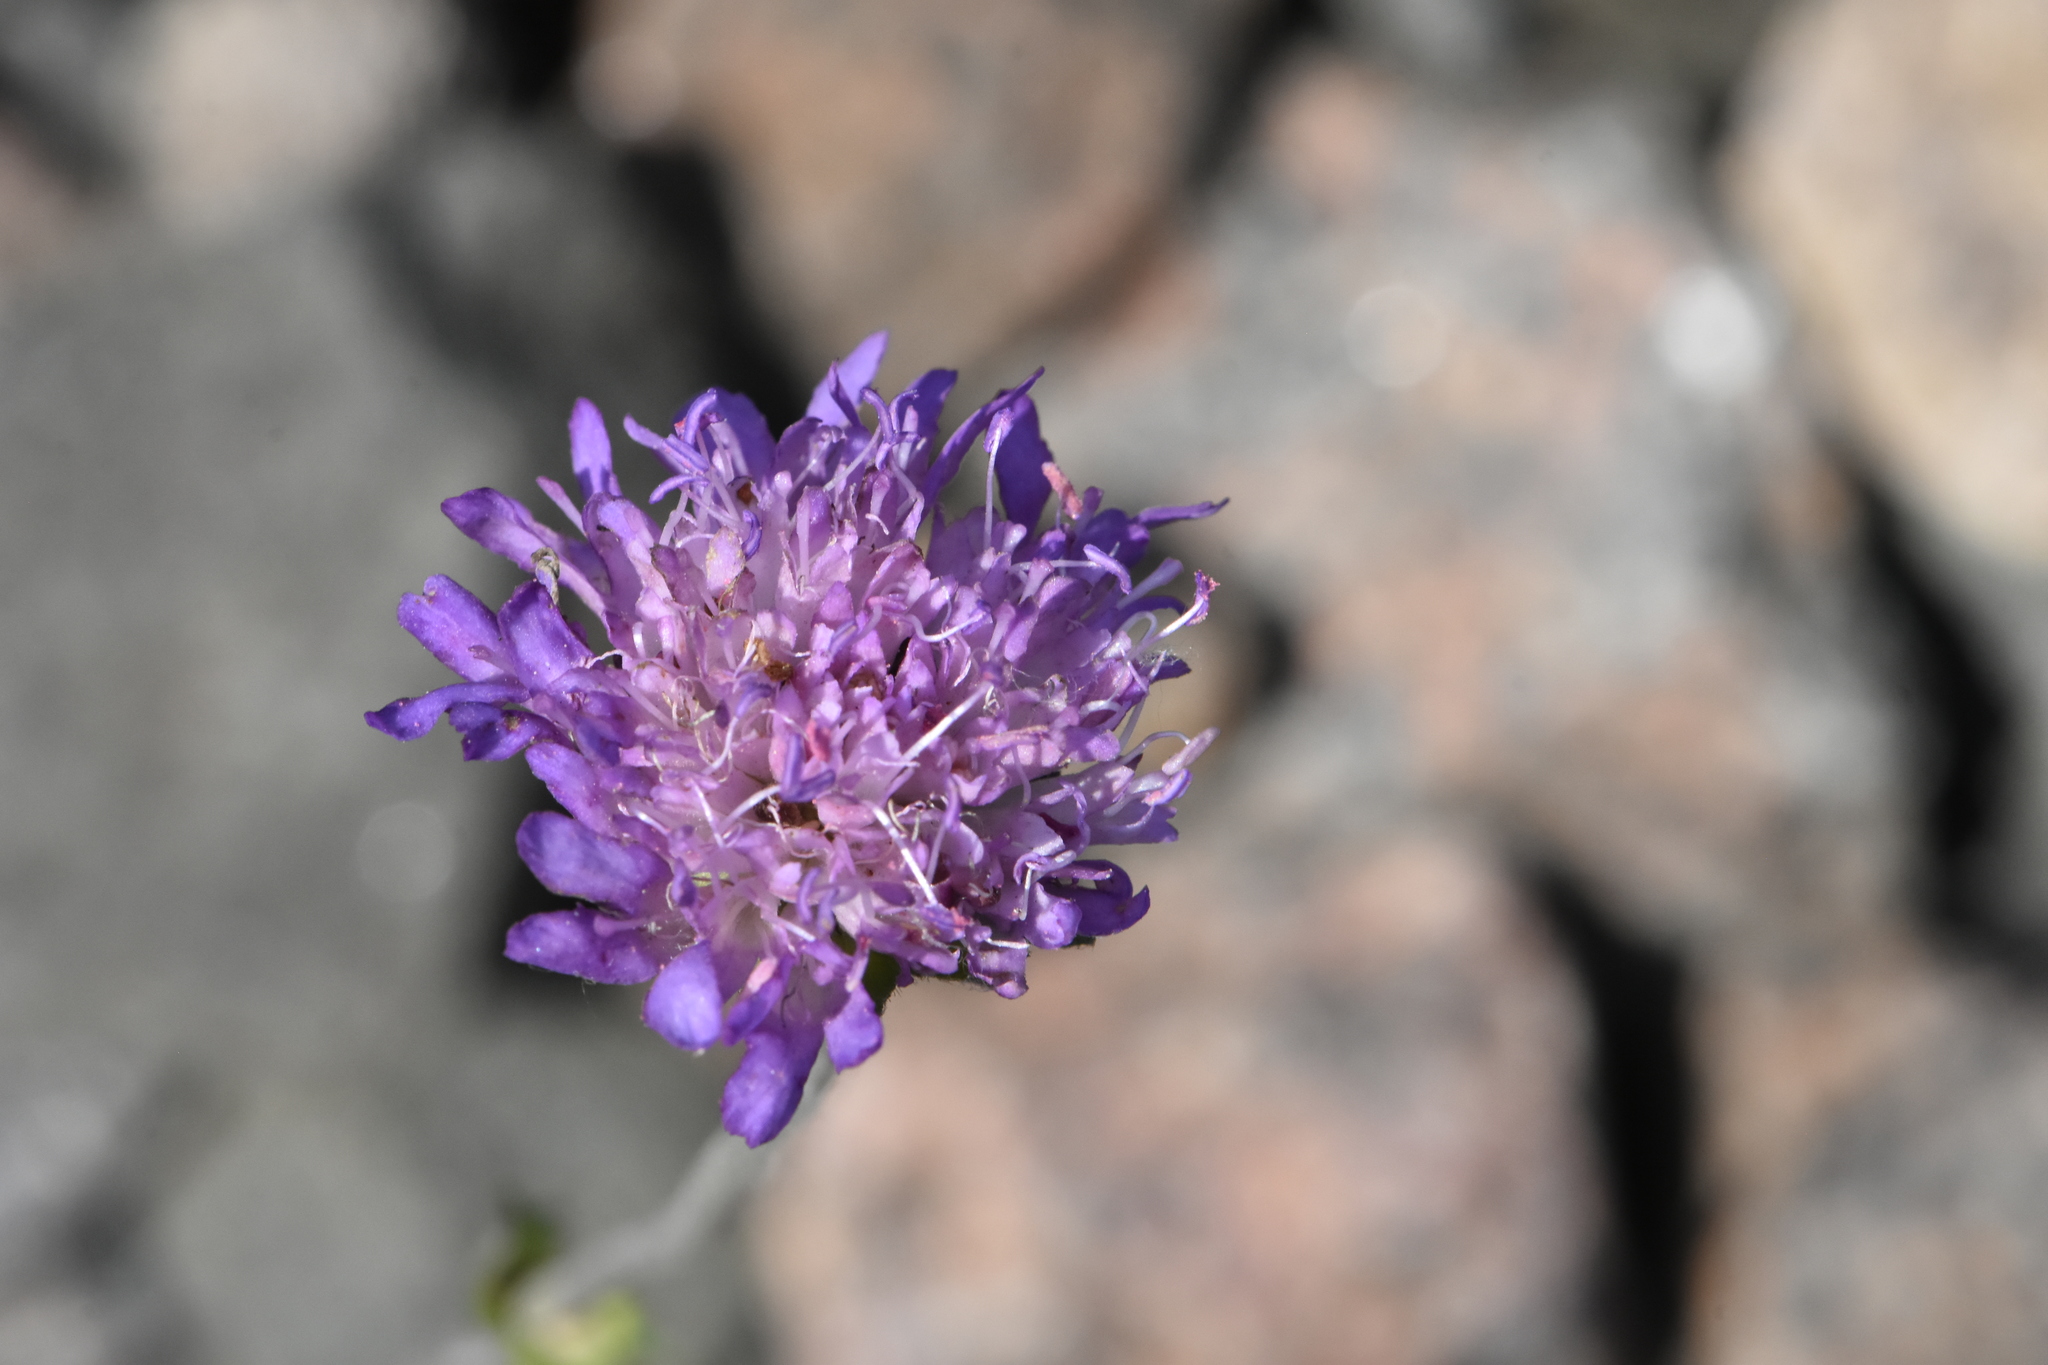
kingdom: Plantae
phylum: Tracheophyta
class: Magnoliopsida
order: Dipsacales
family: Caprifoliaceae
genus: Knautia
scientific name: Knautia arvensis
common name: Field scabiosa
